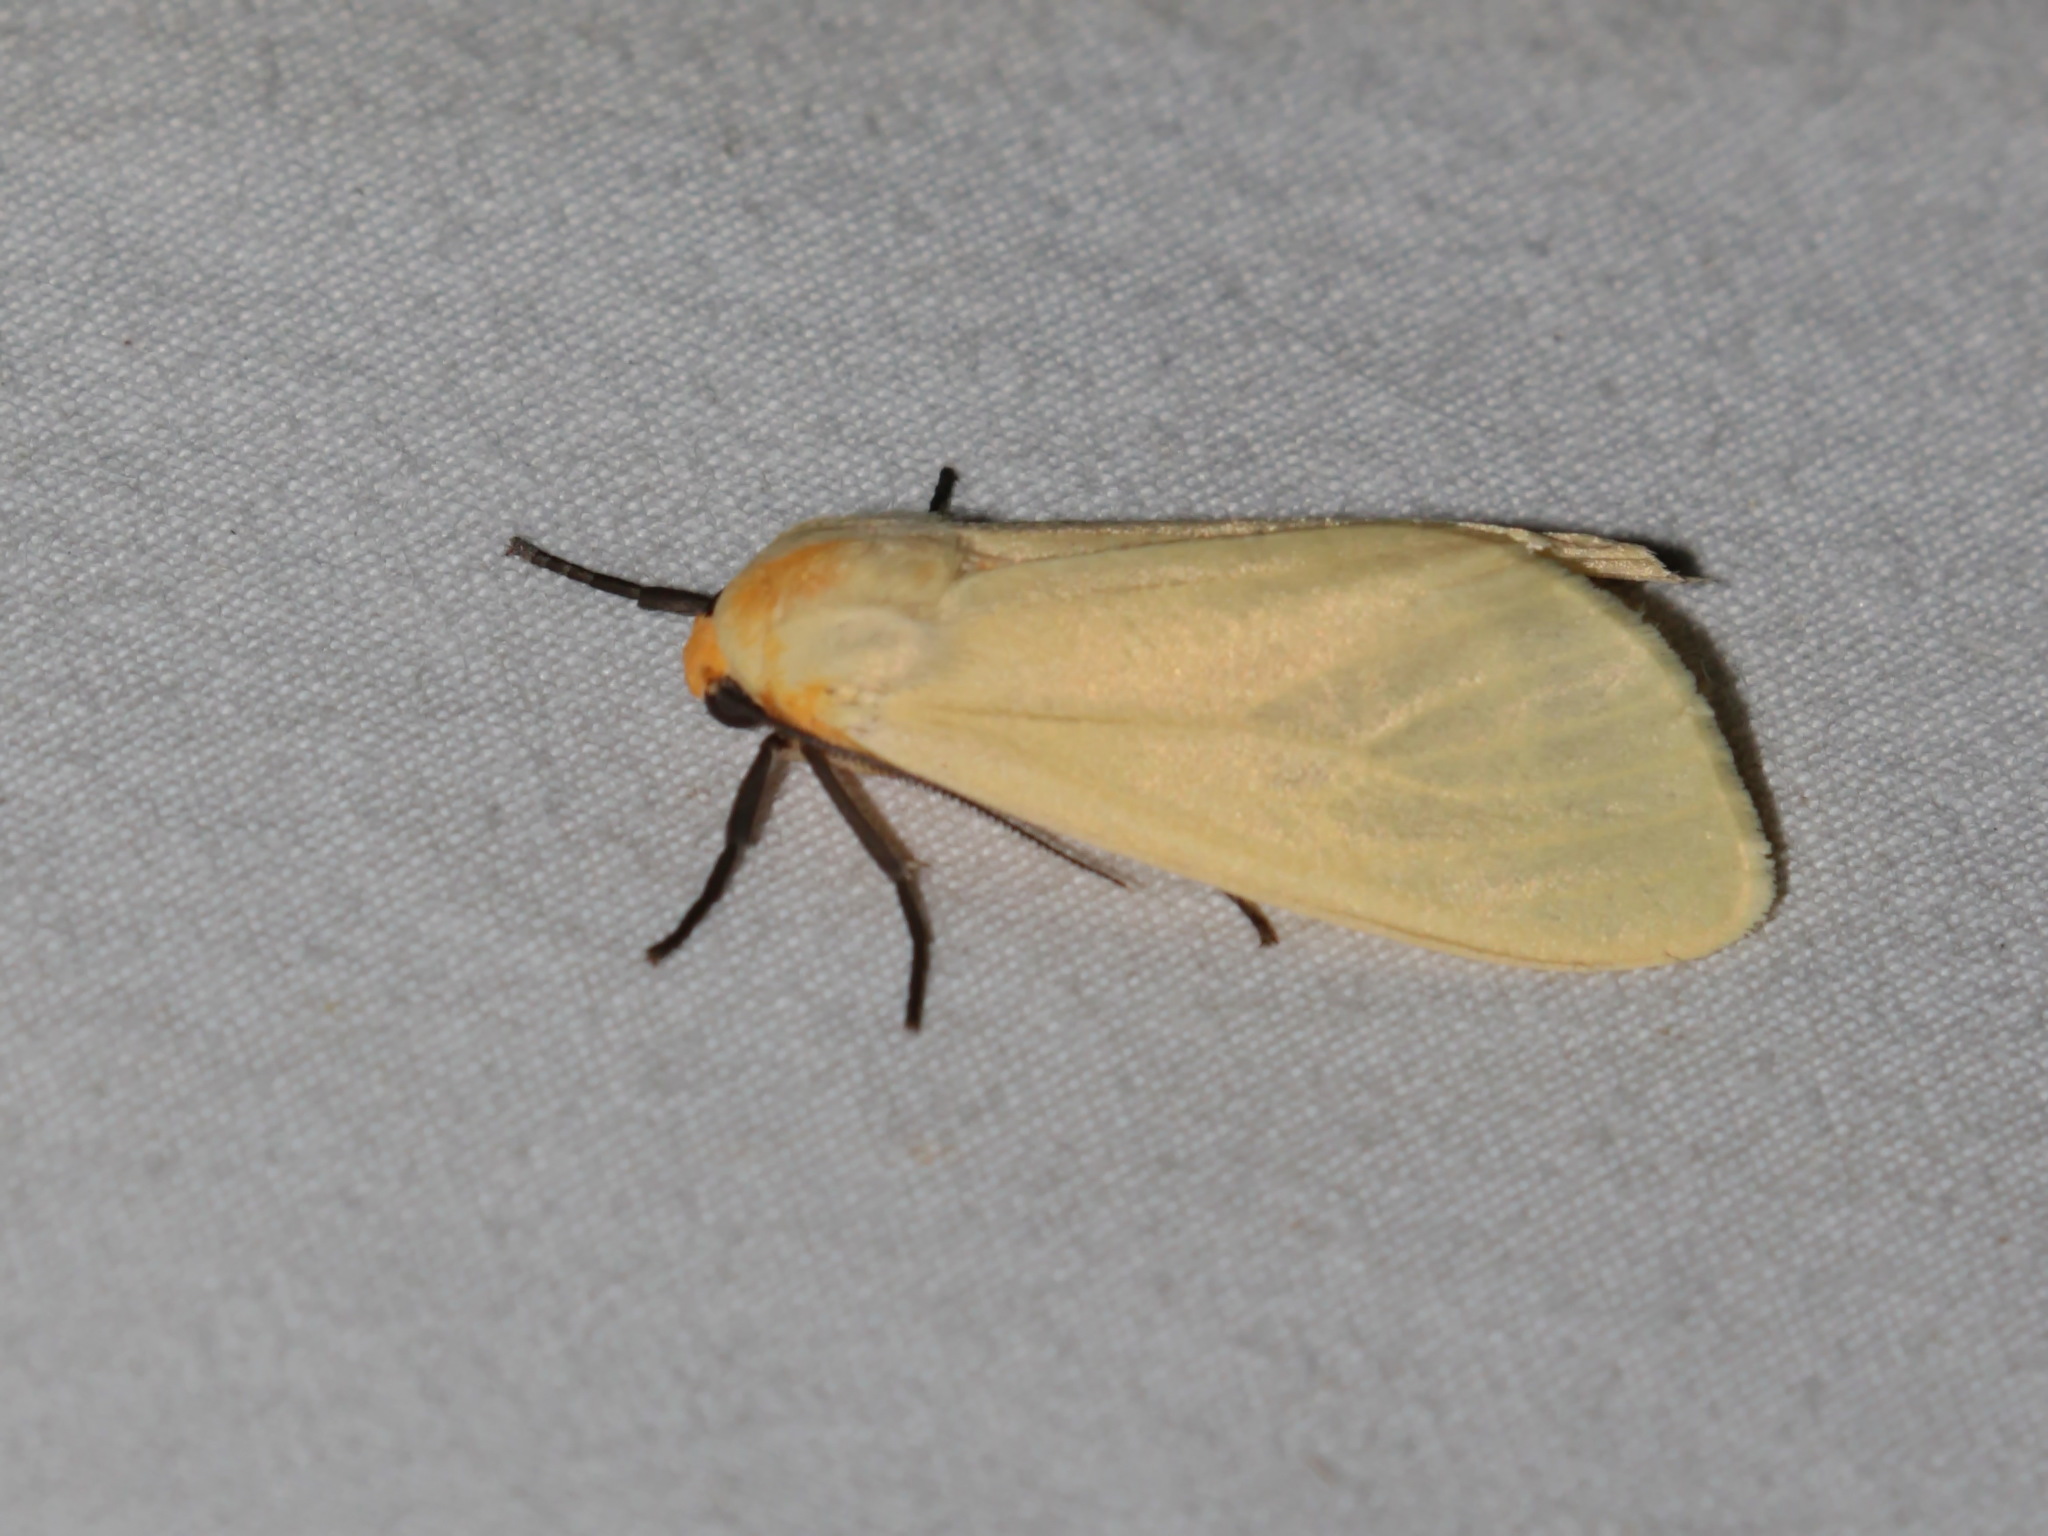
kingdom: Animalia
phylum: Arthropoda
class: Insecta
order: Lepidoptera
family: Erebidae
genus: Pareuchaetes
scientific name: Pareuchaetes pseudoinsulata
